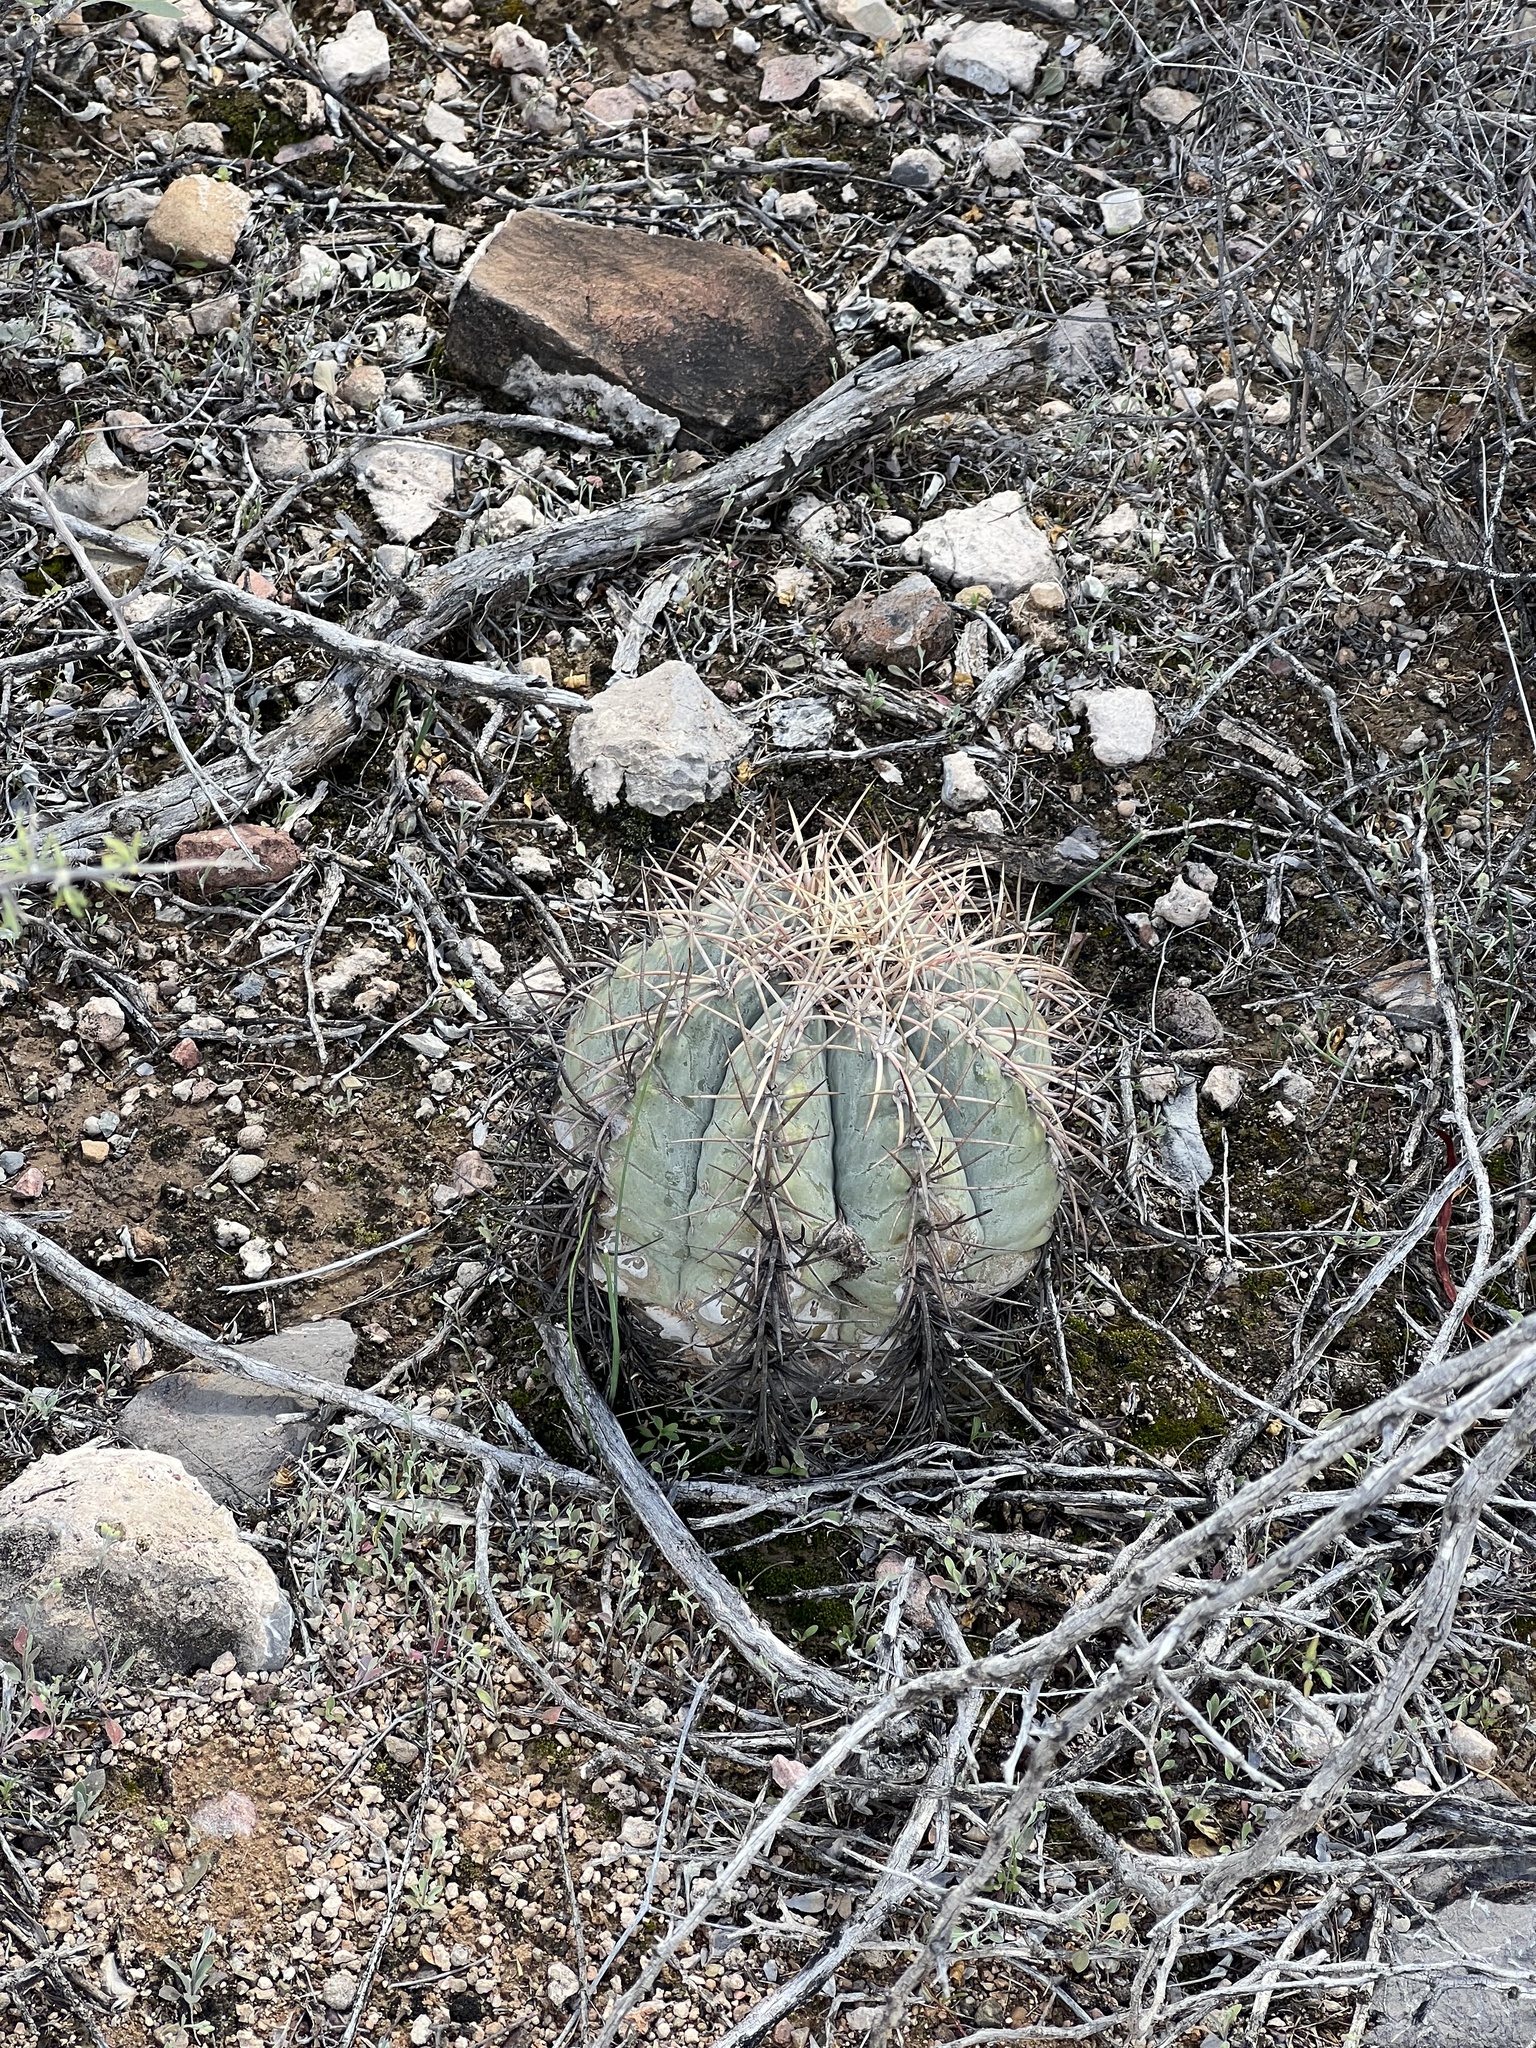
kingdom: Plantae
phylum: Tracheophyta
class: Magnoliopsida
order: Caryophyllales
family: Cactaceae
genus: Echinocactus
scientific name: Echinocactus horizonthalonius
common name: Devilshead
